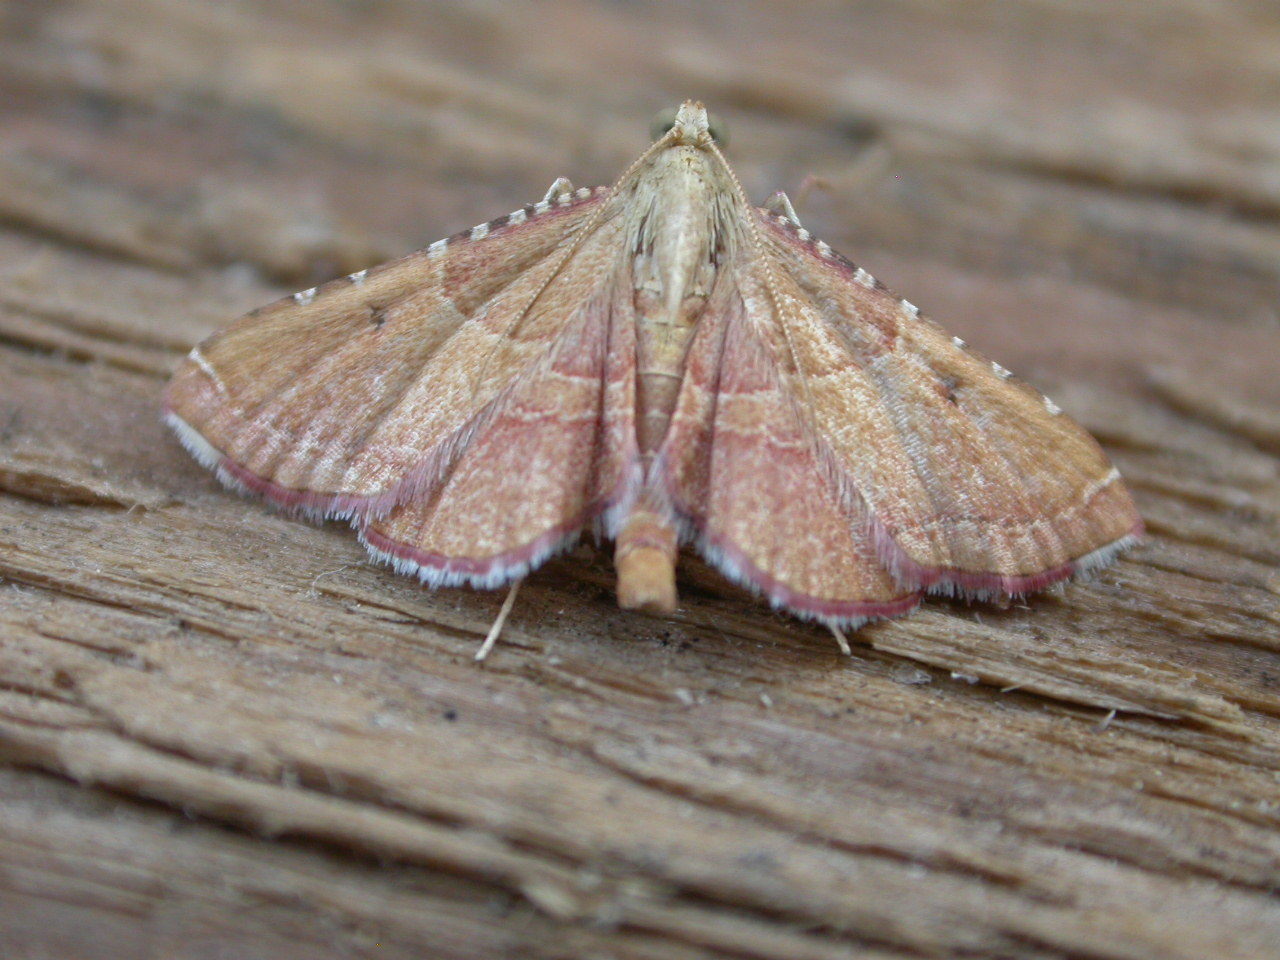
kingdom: Animalia
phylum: Arthropoda
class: Insecta
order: Lepidoptera
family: Pyralidae
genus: Endotricha
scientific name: Endotricha flammealis
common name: Rosy tabby
